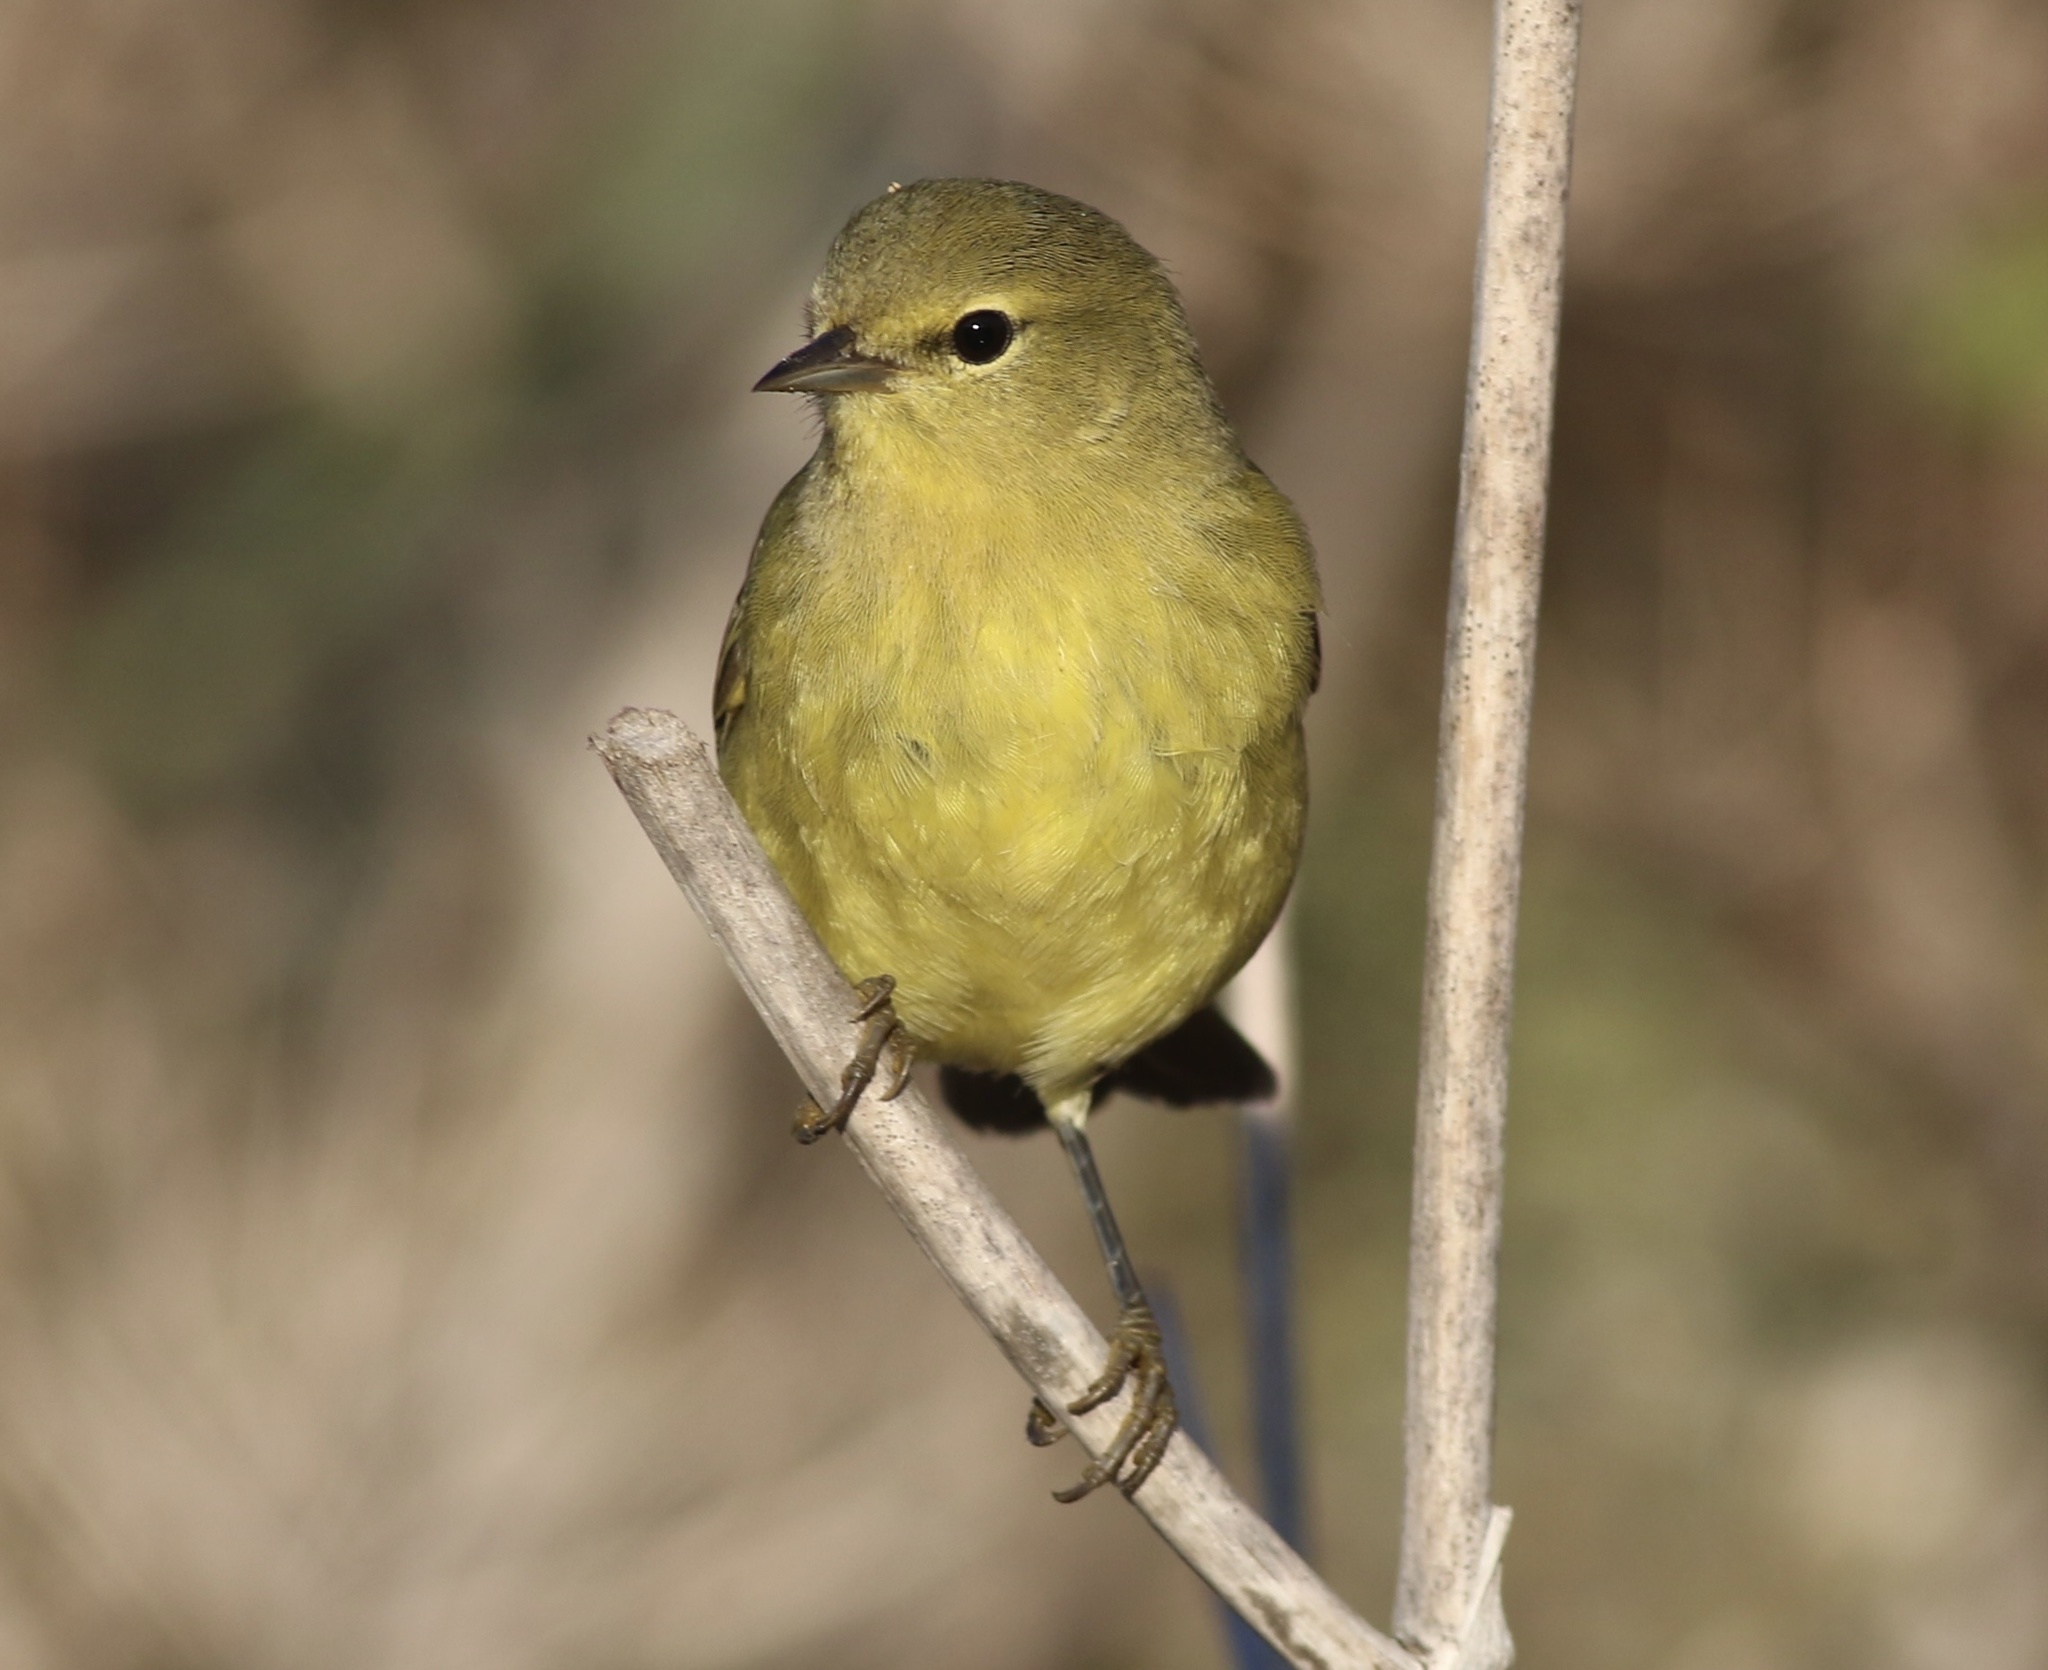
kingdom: Animalia
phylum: Chordata
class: Aves
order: Passeriformes
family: Parulidae
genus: Leiothlypis
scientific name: Leiothlypis celata
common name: Orange-crowned warbler
